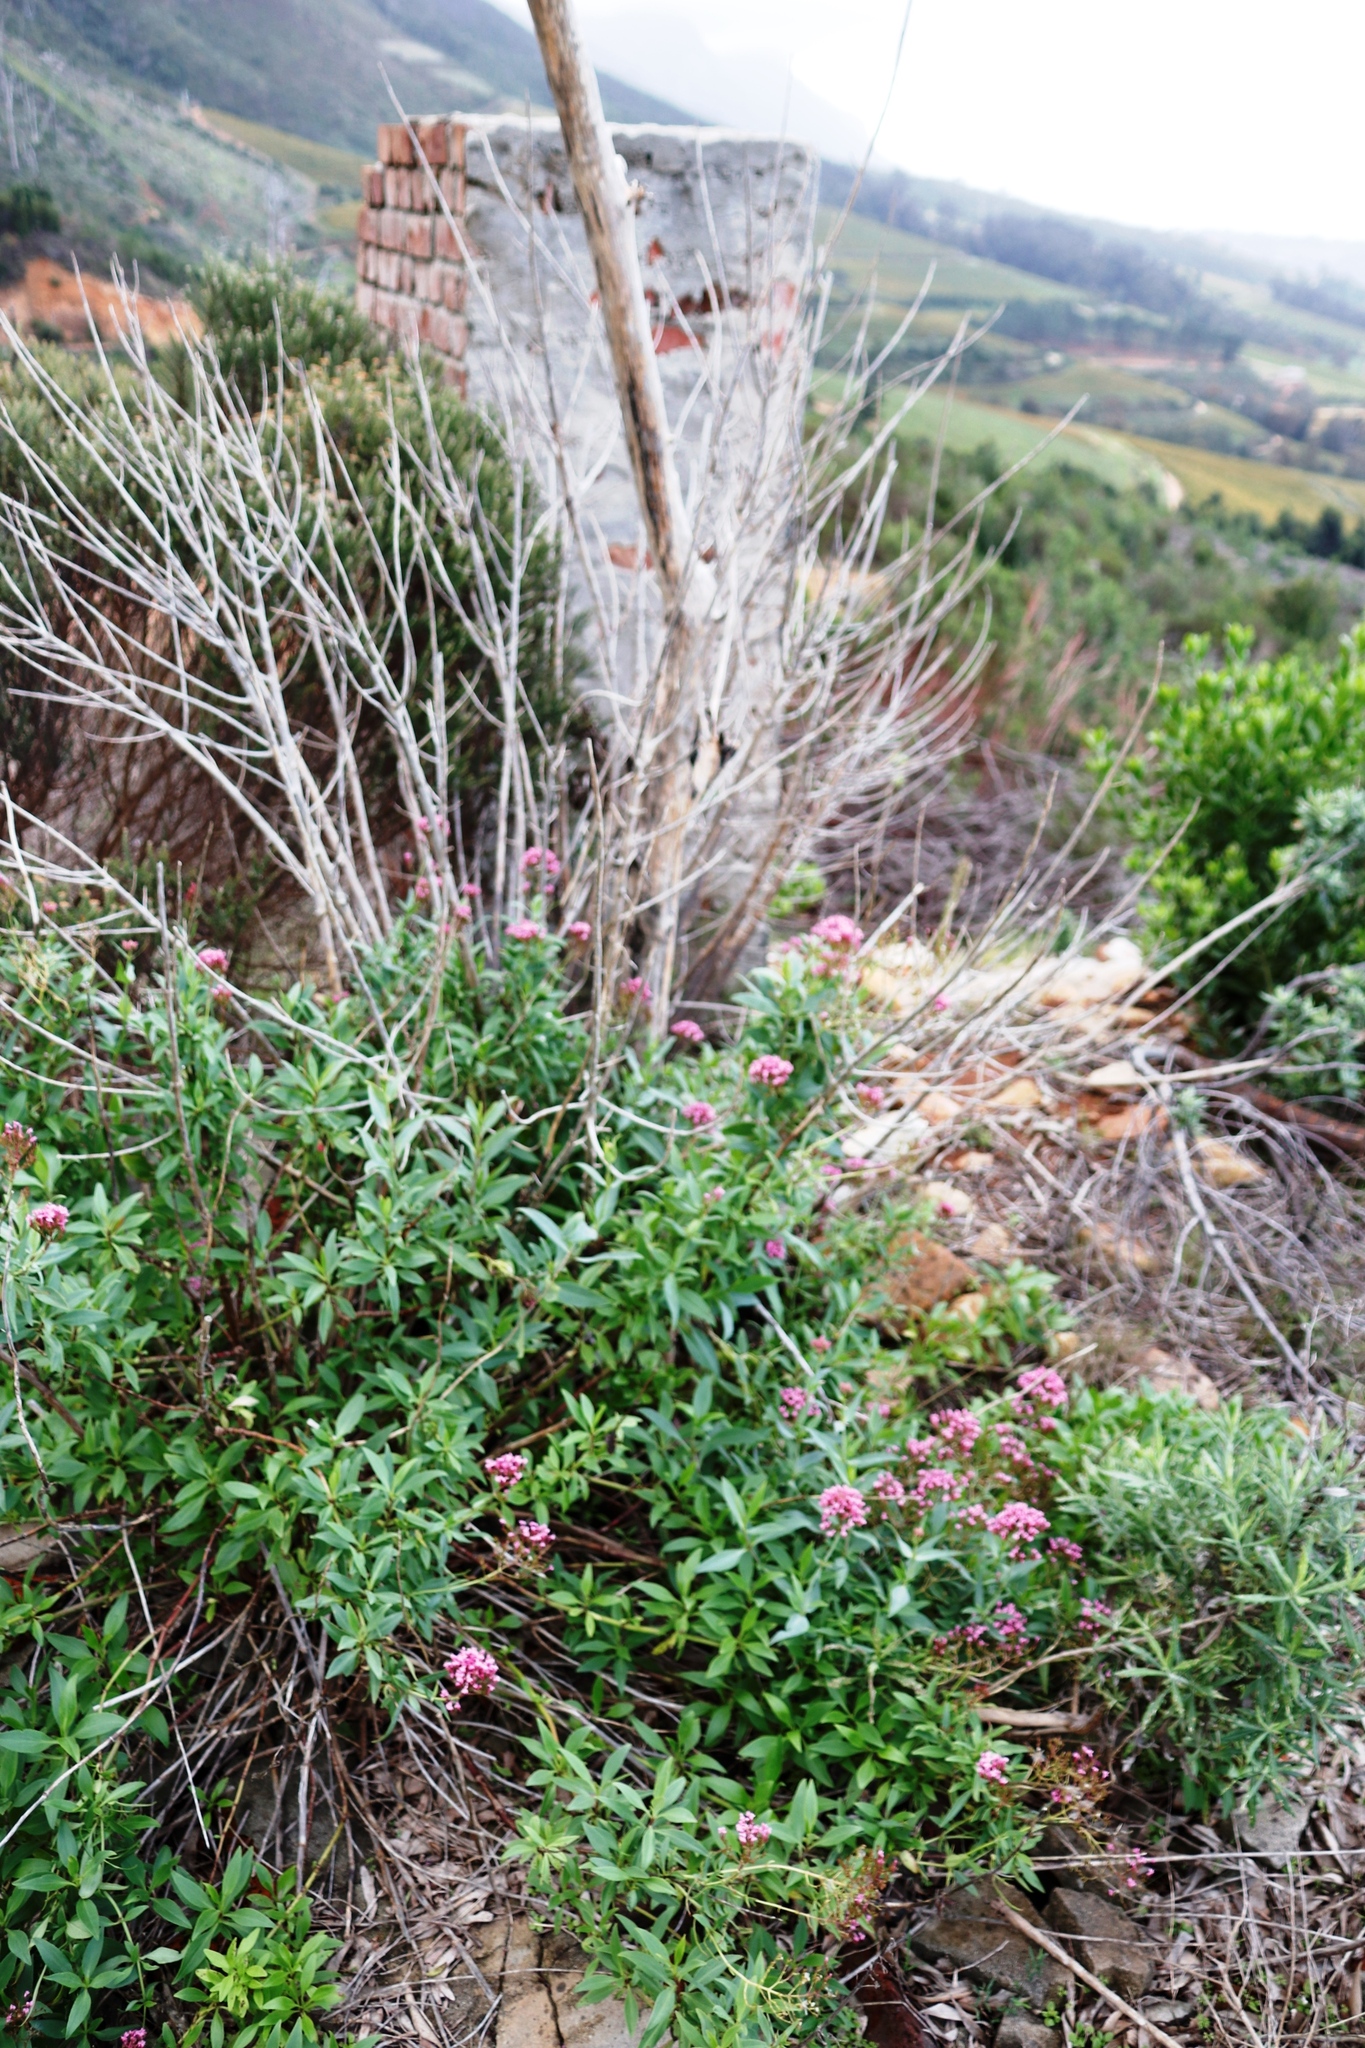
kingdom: Plantae
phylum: Tracheophyta
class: Magnoliopsida
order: Dipsacales
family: Caprifoliaceae
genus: Centranthus
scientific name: Centranthus ruber
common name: Red valerian
